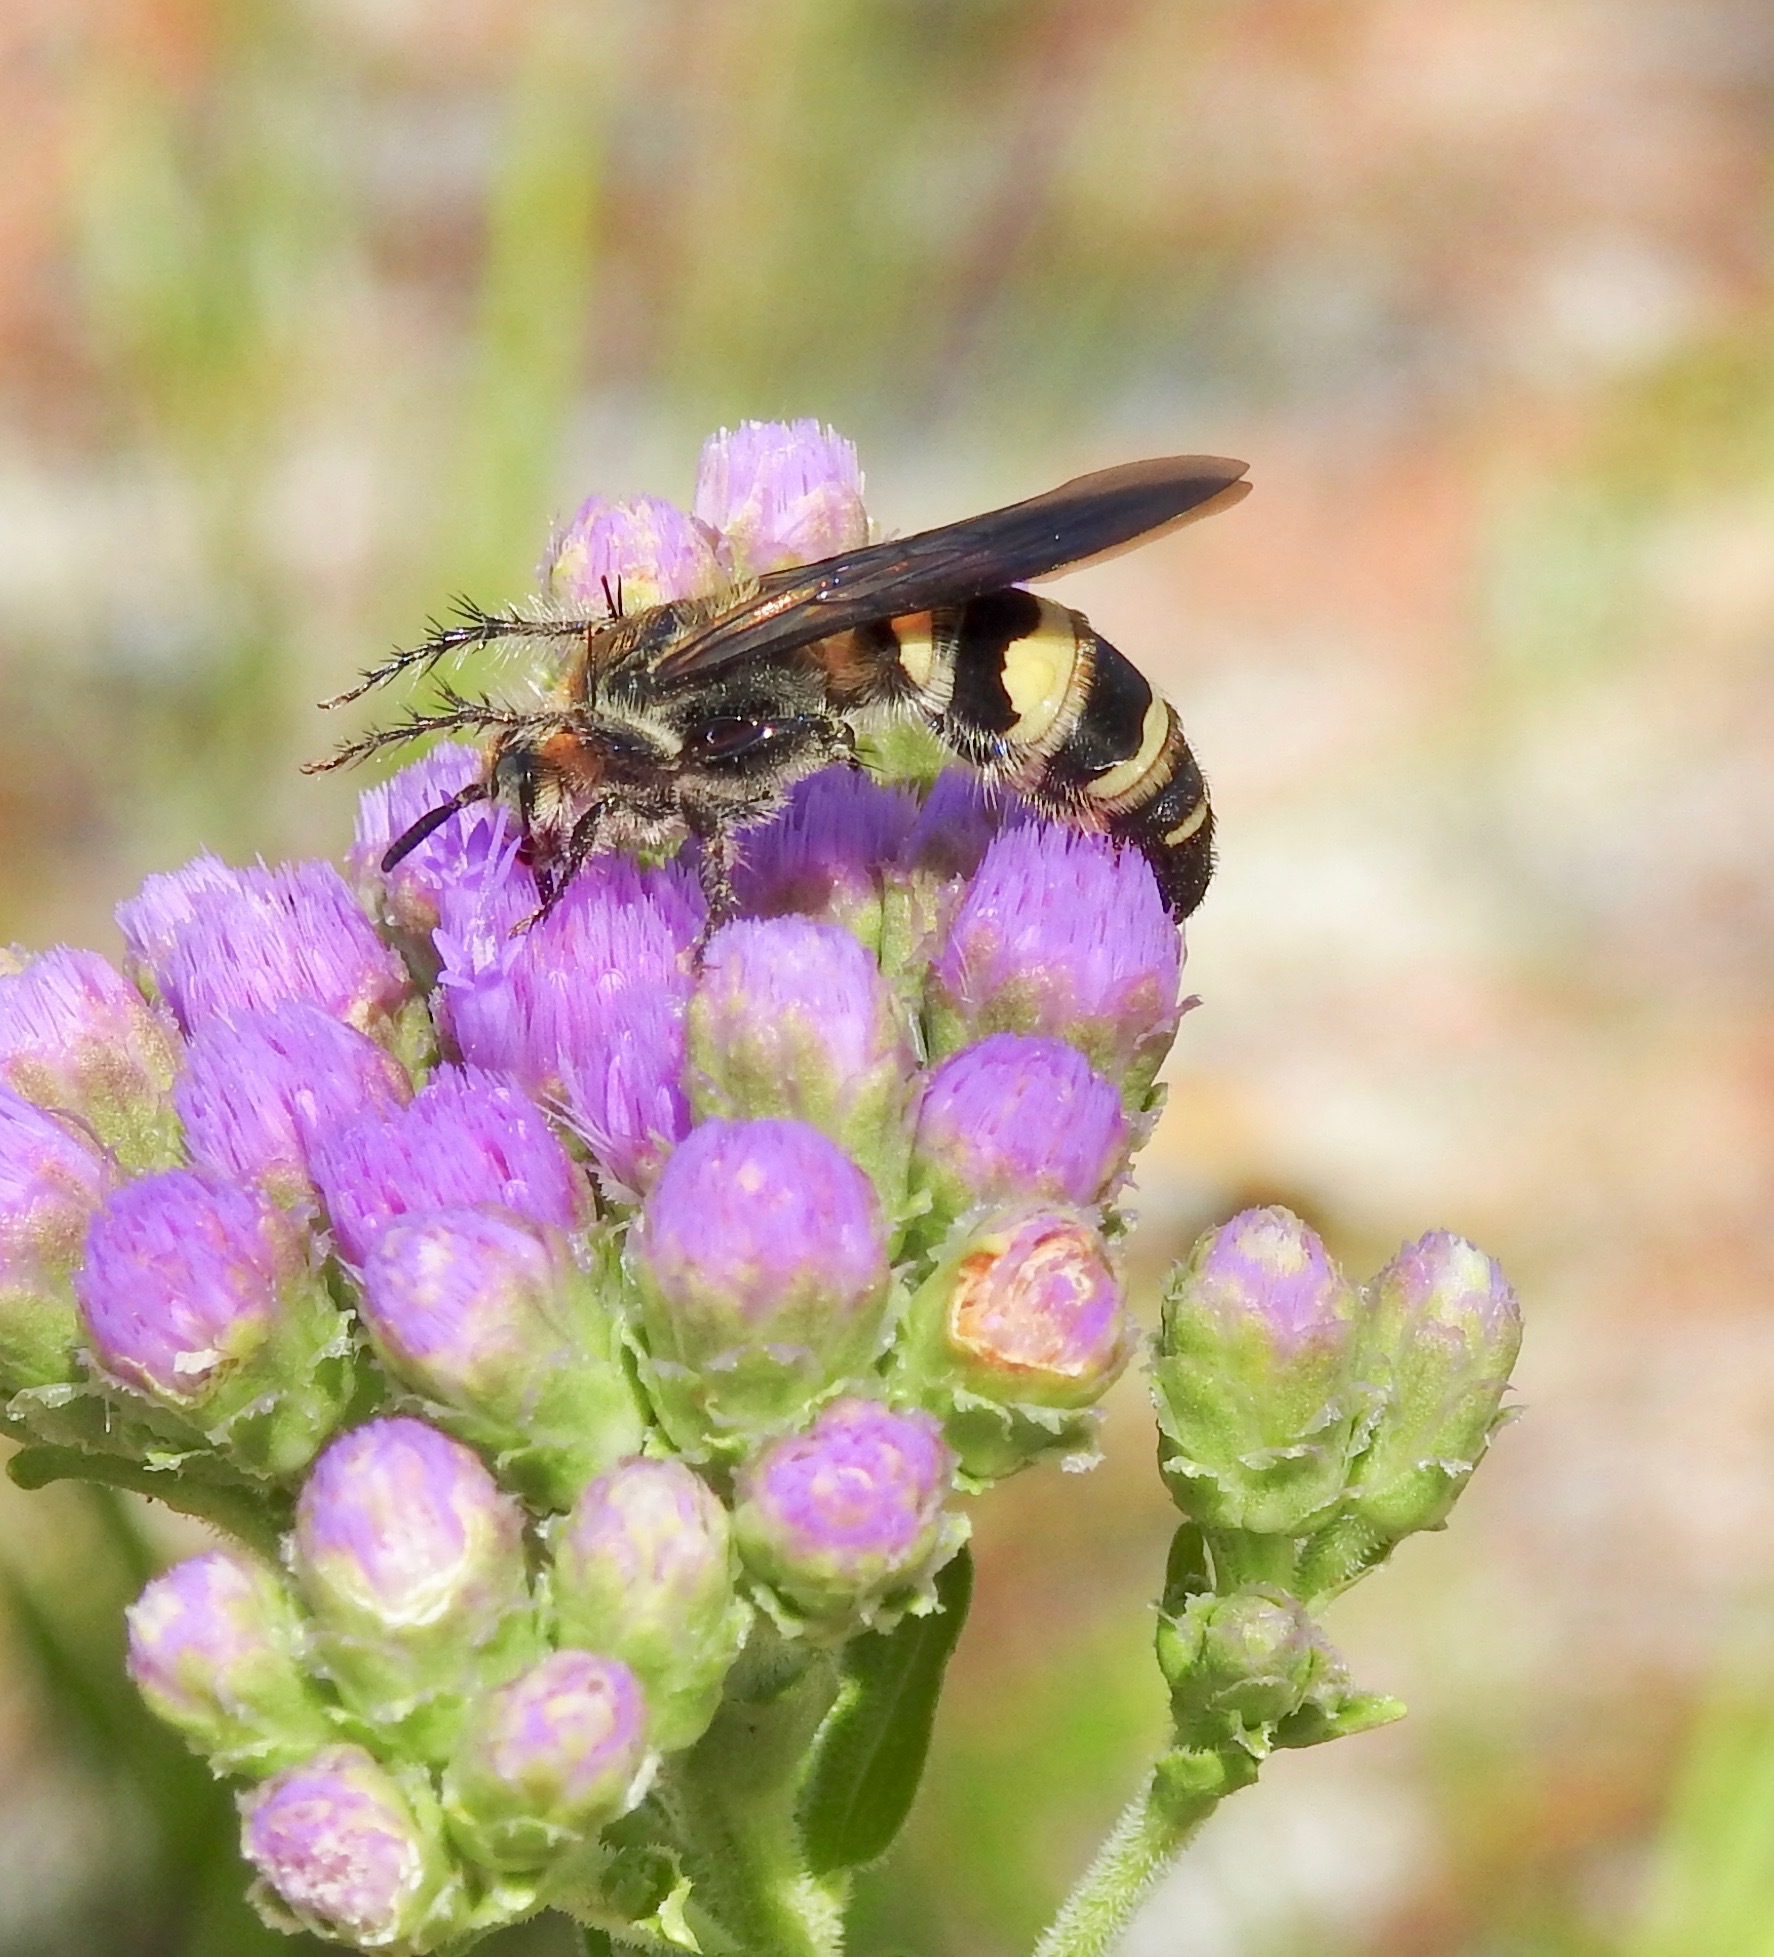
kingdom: Animalia
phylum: Arthropoda
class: Insecta
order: Hymenoptera
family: Scoliidae
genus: Dielis
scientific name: Dielis
